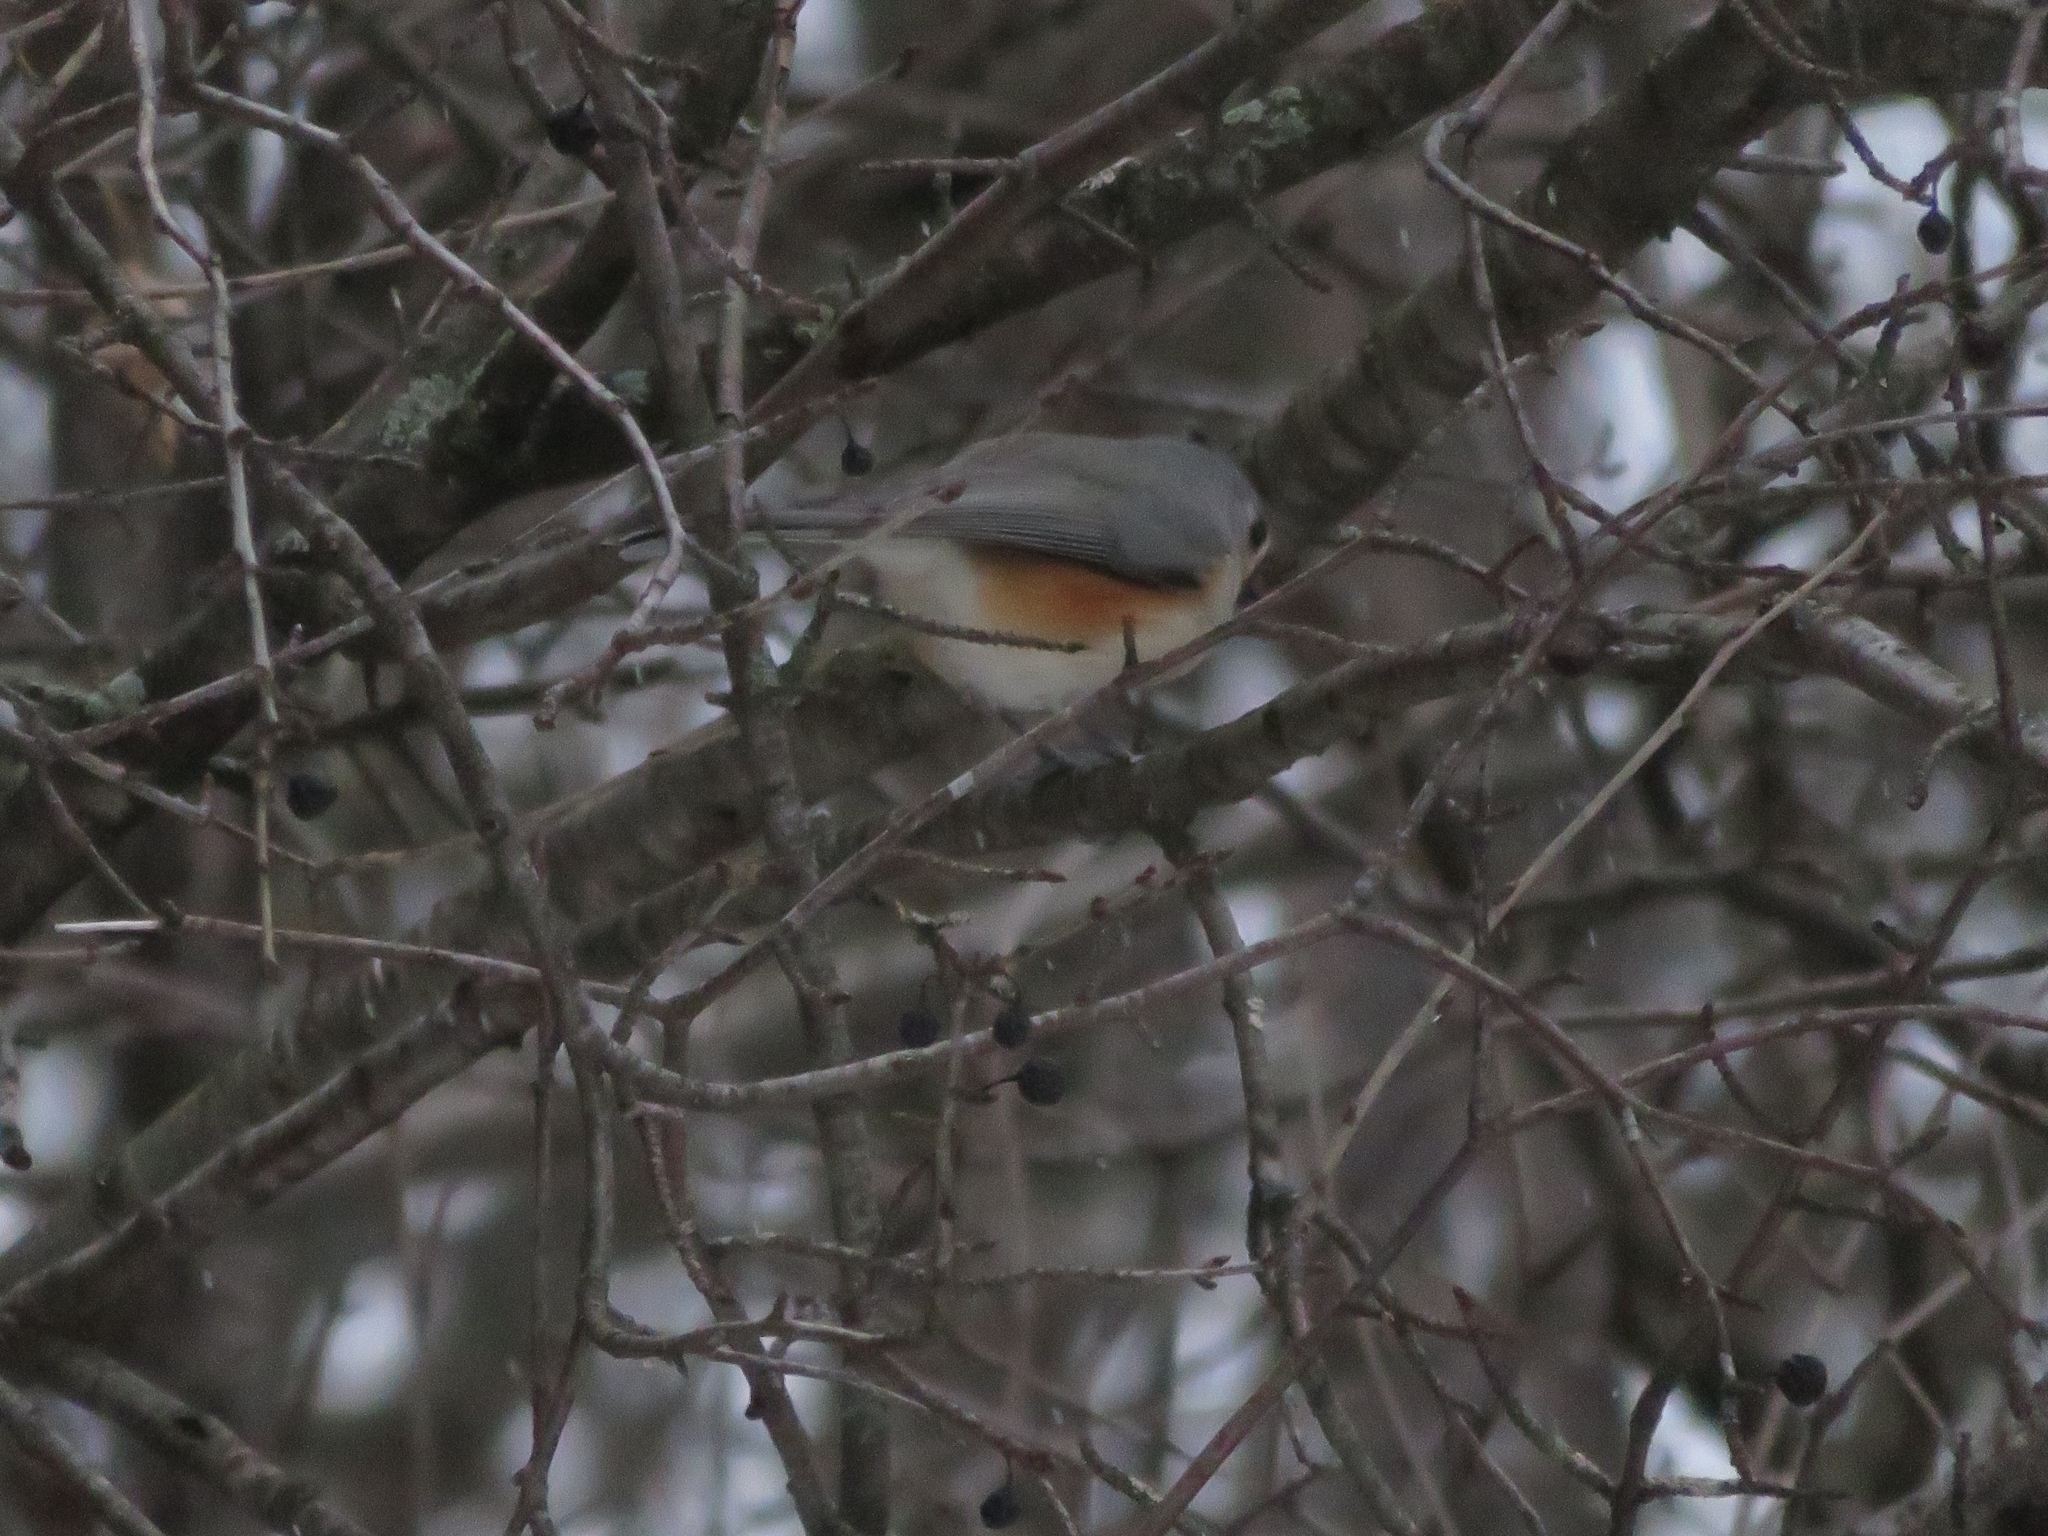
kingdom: Animalia
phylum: Chordata
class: Aves
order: Passeriformes
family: Paridae
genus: Baeolophus
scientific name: Baeolophus bicolor
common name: Tufted titmouse
